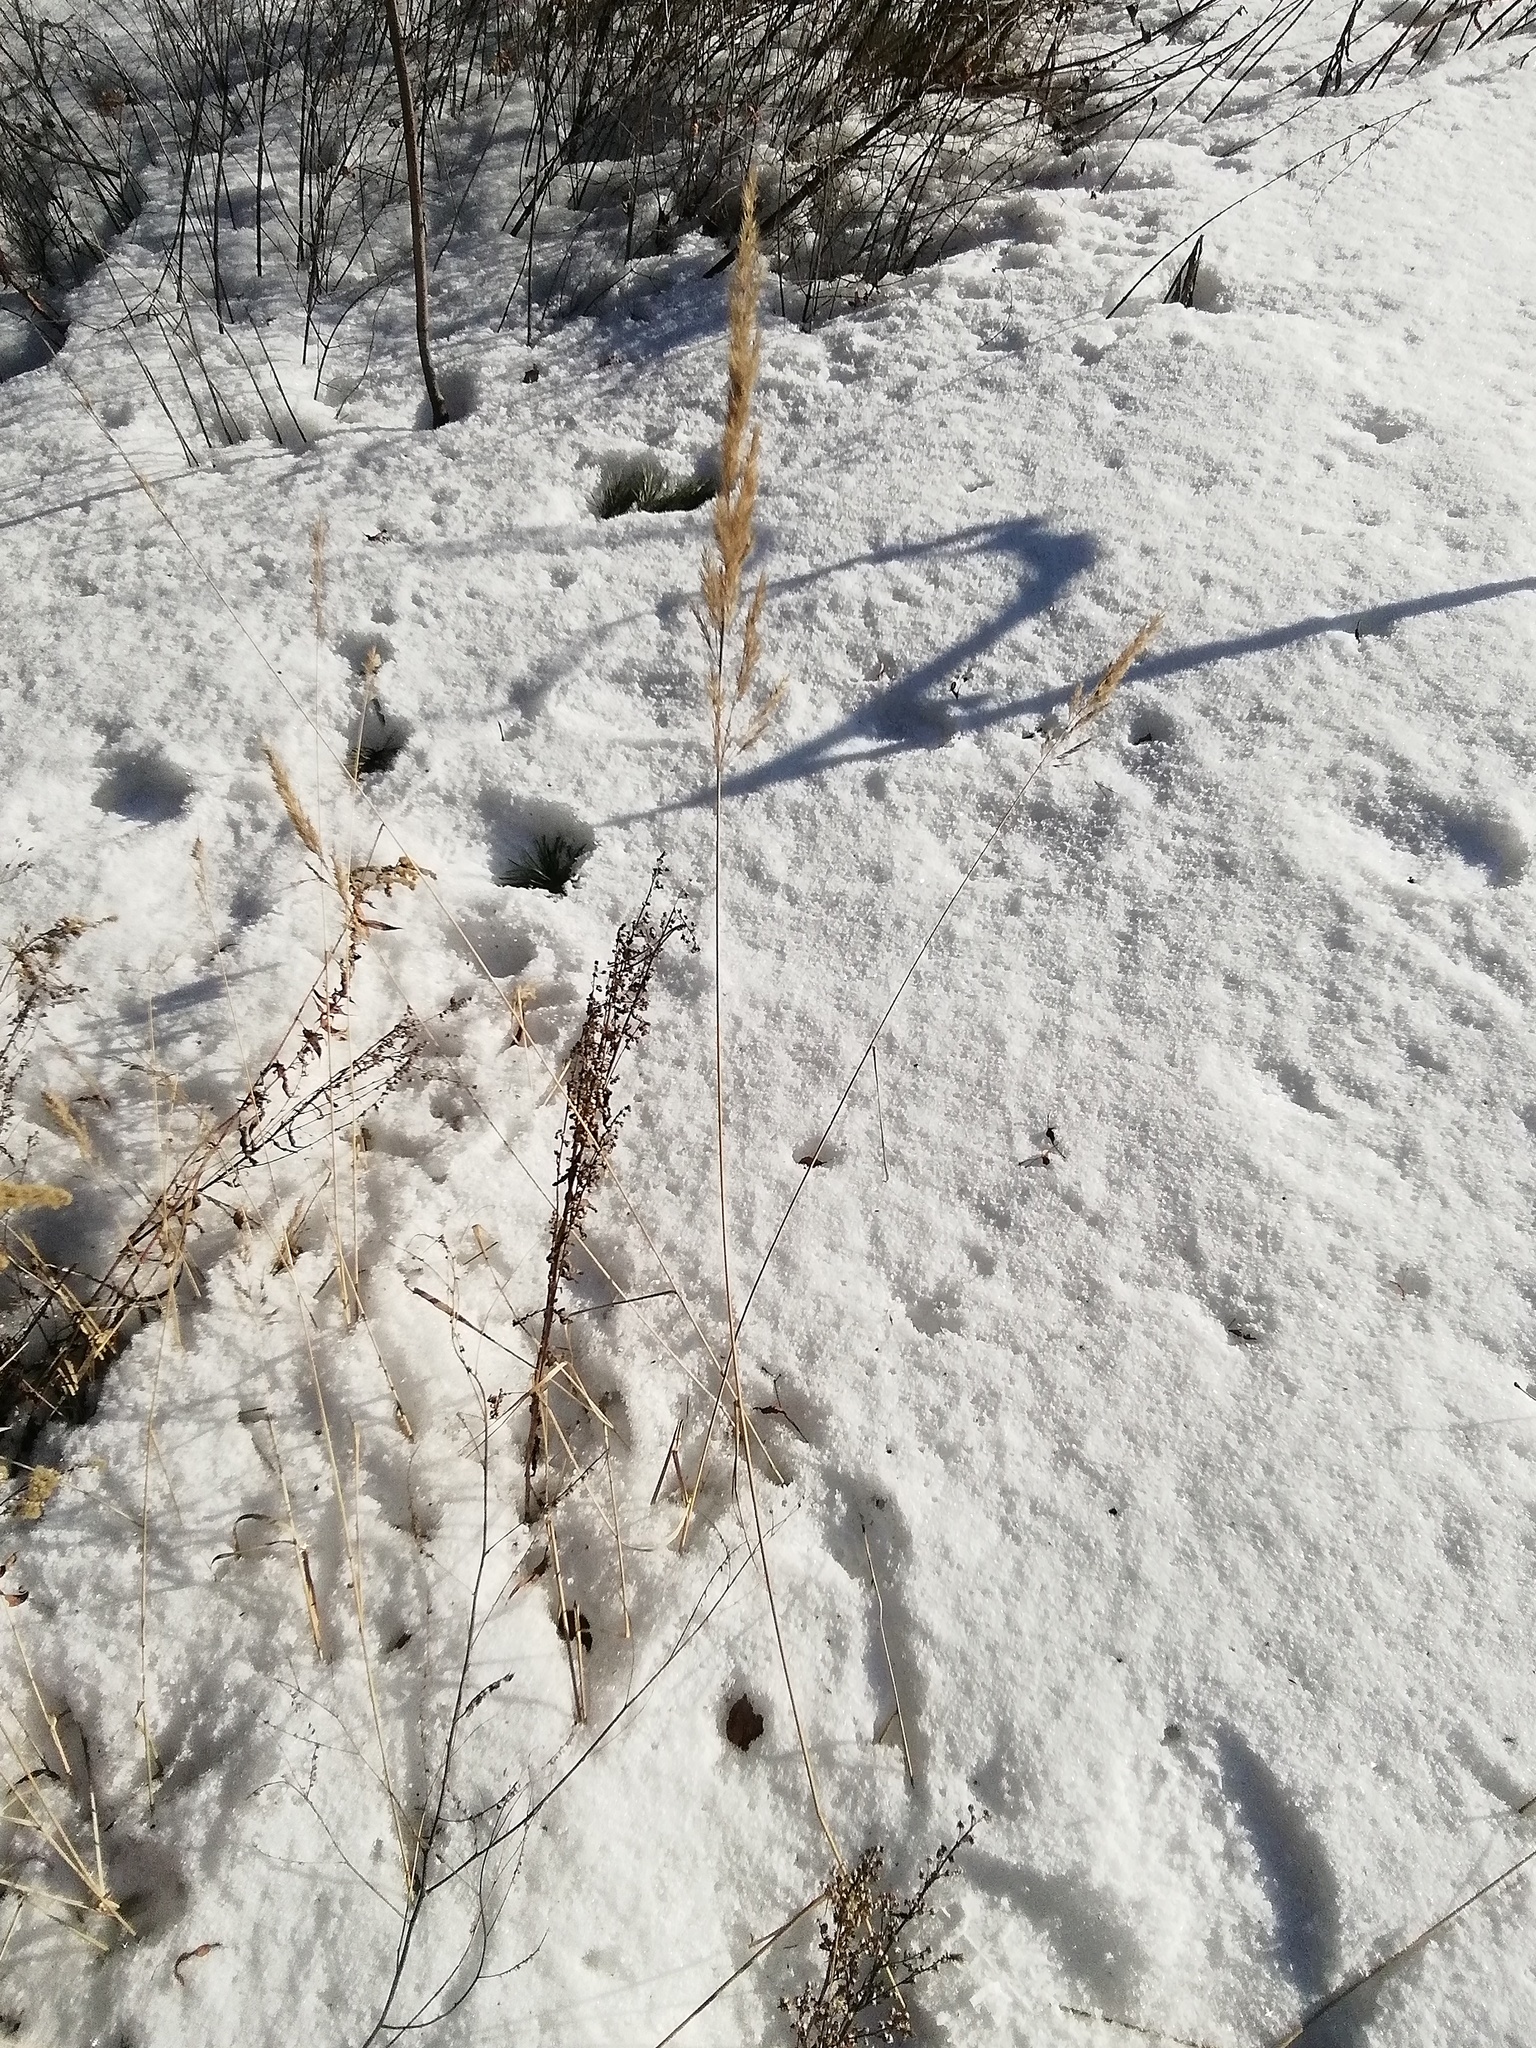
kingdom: Plantae
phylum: Tracheophyta
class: Liliopsida
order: Poales
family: Poaceae
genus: Calamagrostis
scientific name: Calamagrostis epigejos
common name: Wood small-reed
